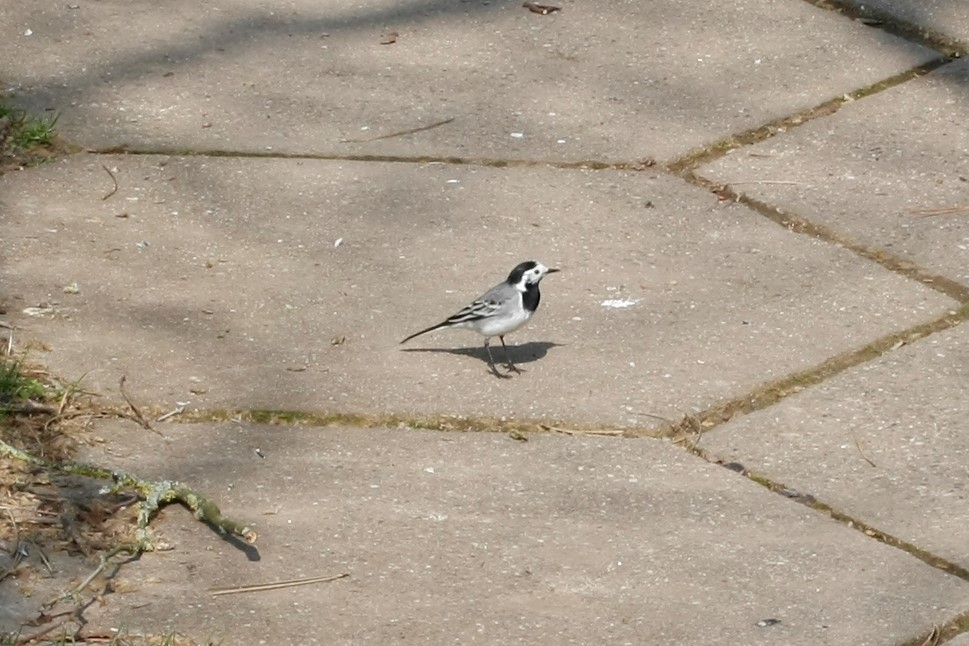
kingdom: Animalia
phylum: Chordata
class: Aves
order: Passeriformes
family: Motacillidae
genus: Motacilla
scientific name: Motacilla alba
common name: White wagtail
